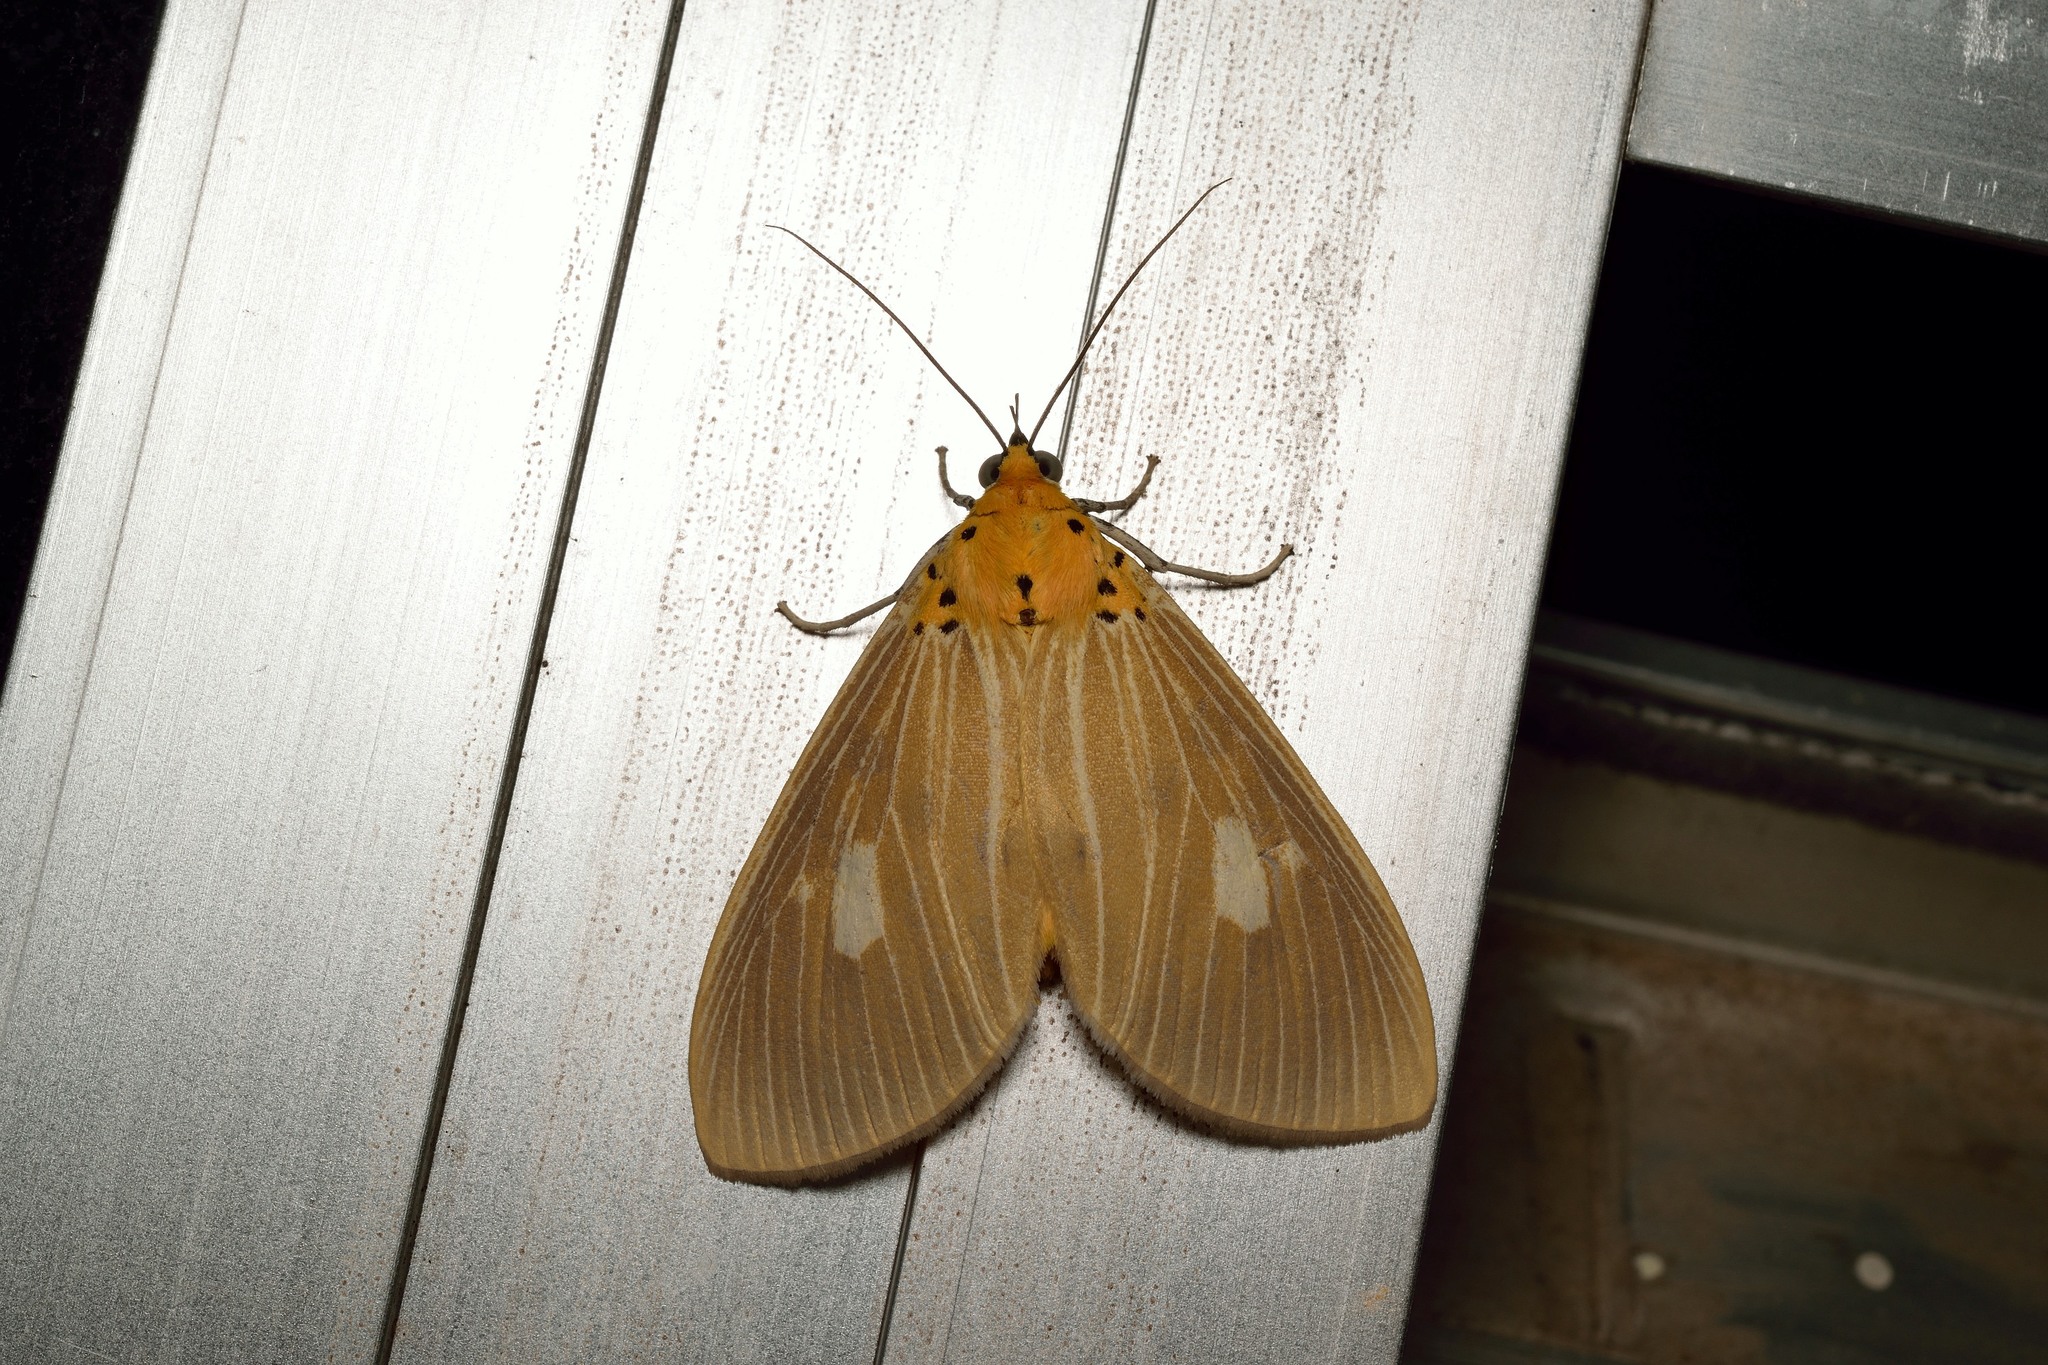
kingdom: Animalia
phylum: Arthropoda
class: Insecta
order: Lepidoptera
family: Erebidae
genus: Asota
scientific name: Asota plaginota
